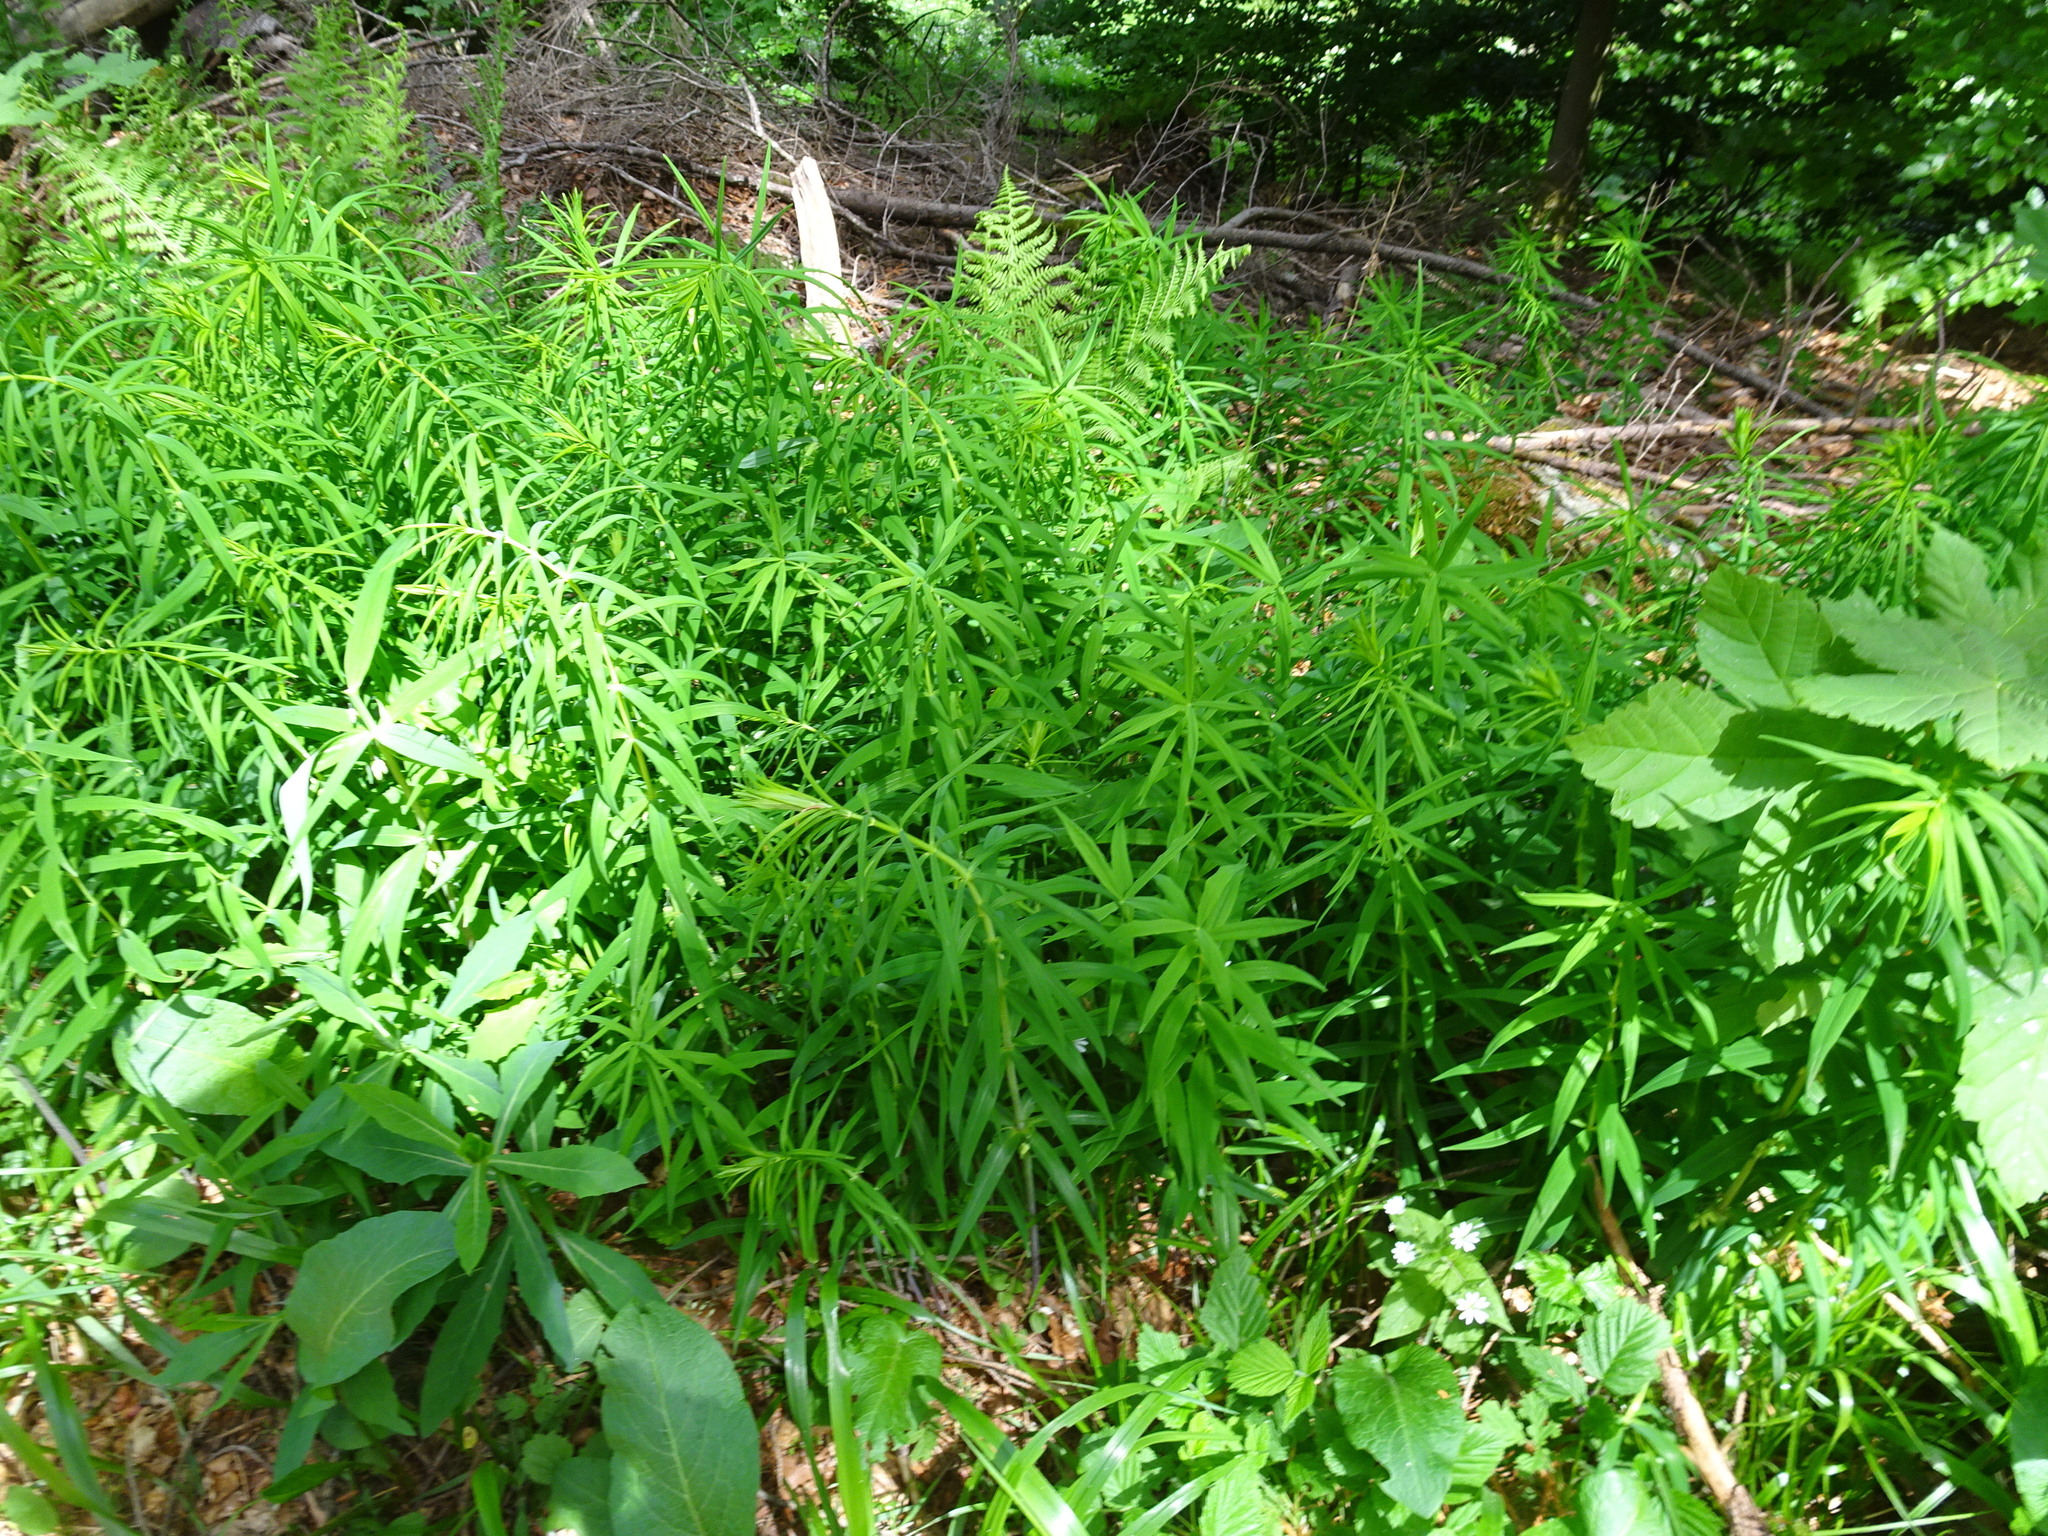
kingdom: Plantae
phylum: Tracheophyta
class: Liliopsida
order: Asparagales
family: Asparagaceae
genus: Polygonatum
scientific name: Polygonatum verticillatum
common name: Whorled solomon's-seal
